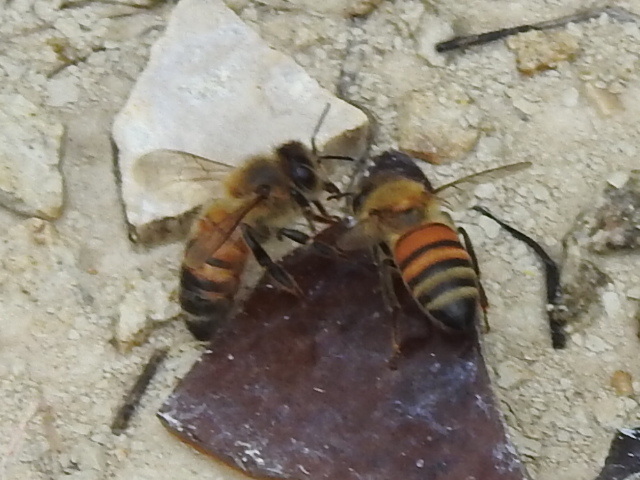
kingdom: Animalia
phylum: Arthropoda
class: Insecta
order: Hymenoptera
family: Apidae
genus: Apis
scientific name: Apis mellifera
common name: Honey bee
